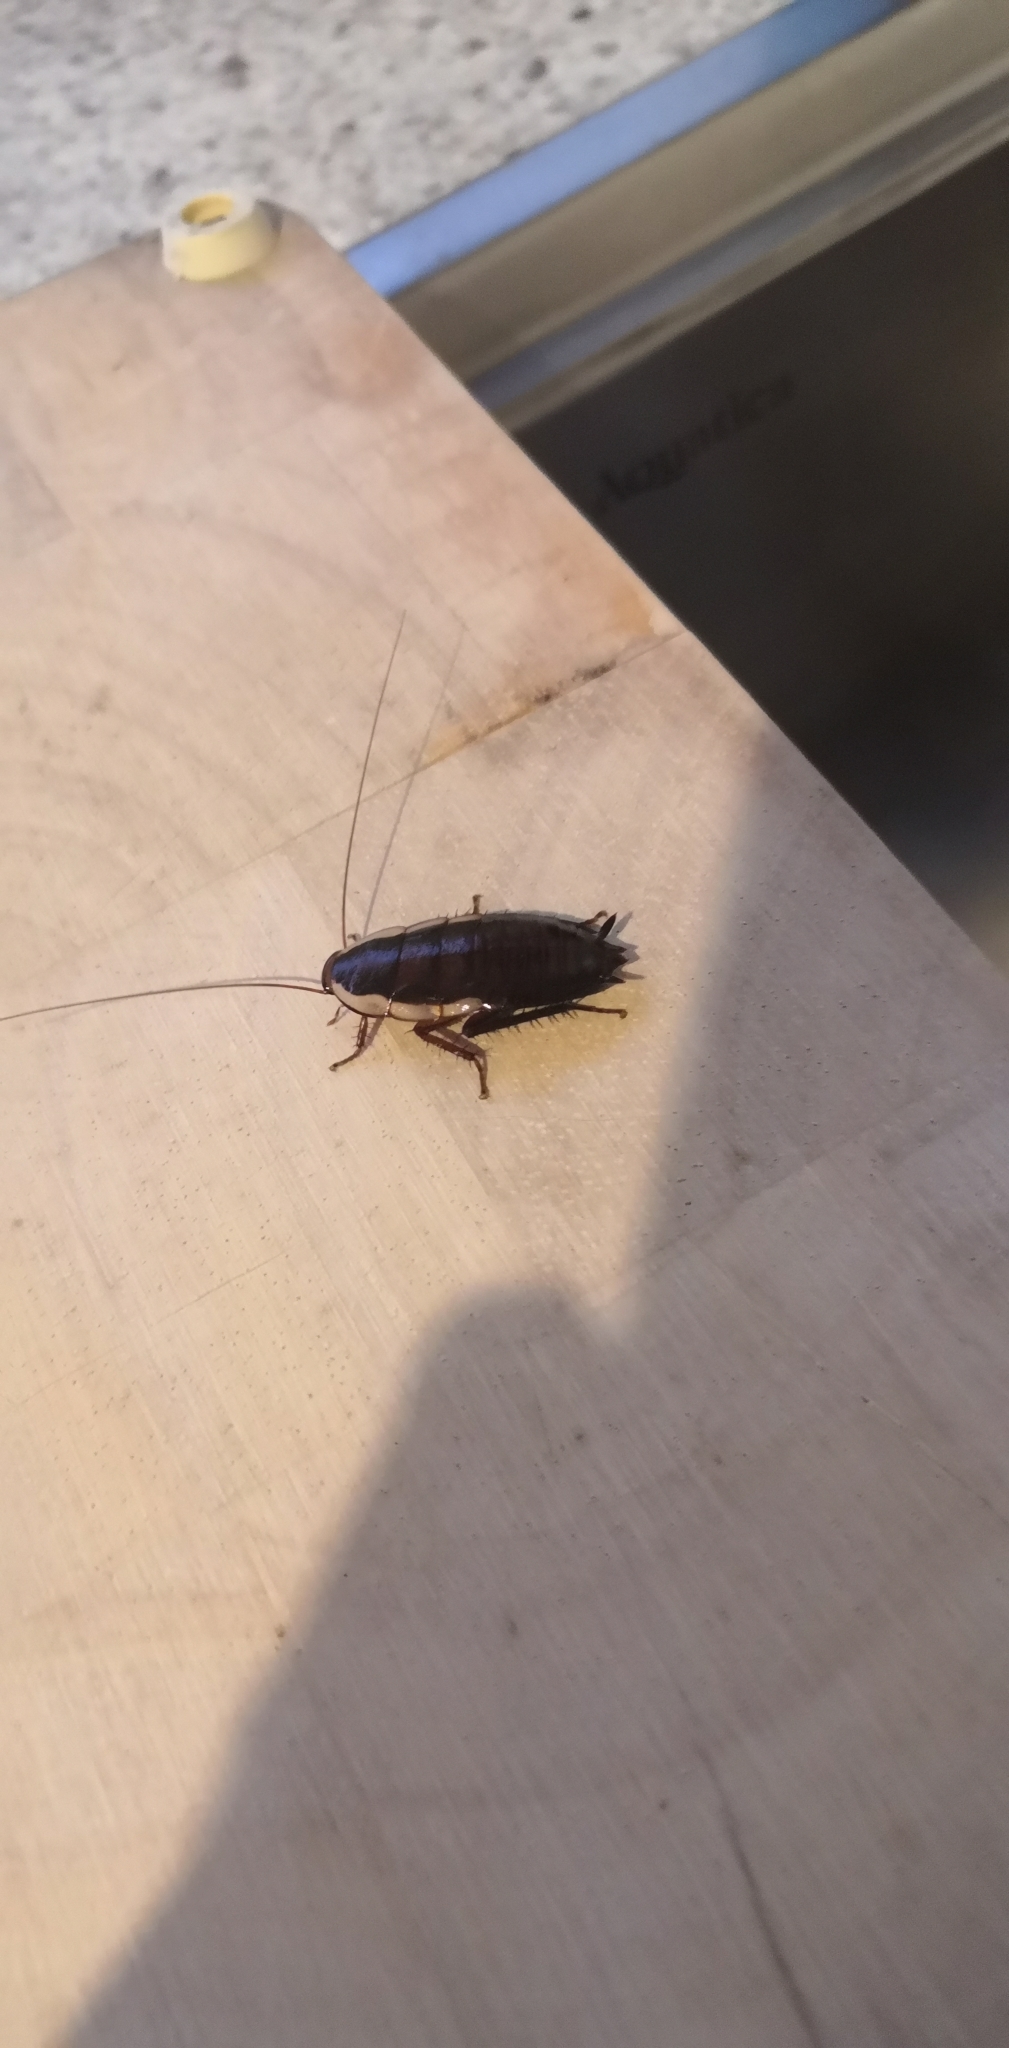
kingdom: Animalia
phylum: Arthropoda
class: Insecta
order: Blattodea
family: Blattidae
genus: Drymaplaneta
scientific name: Drymaplaneta semivitta
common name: Gisborne cockroach
